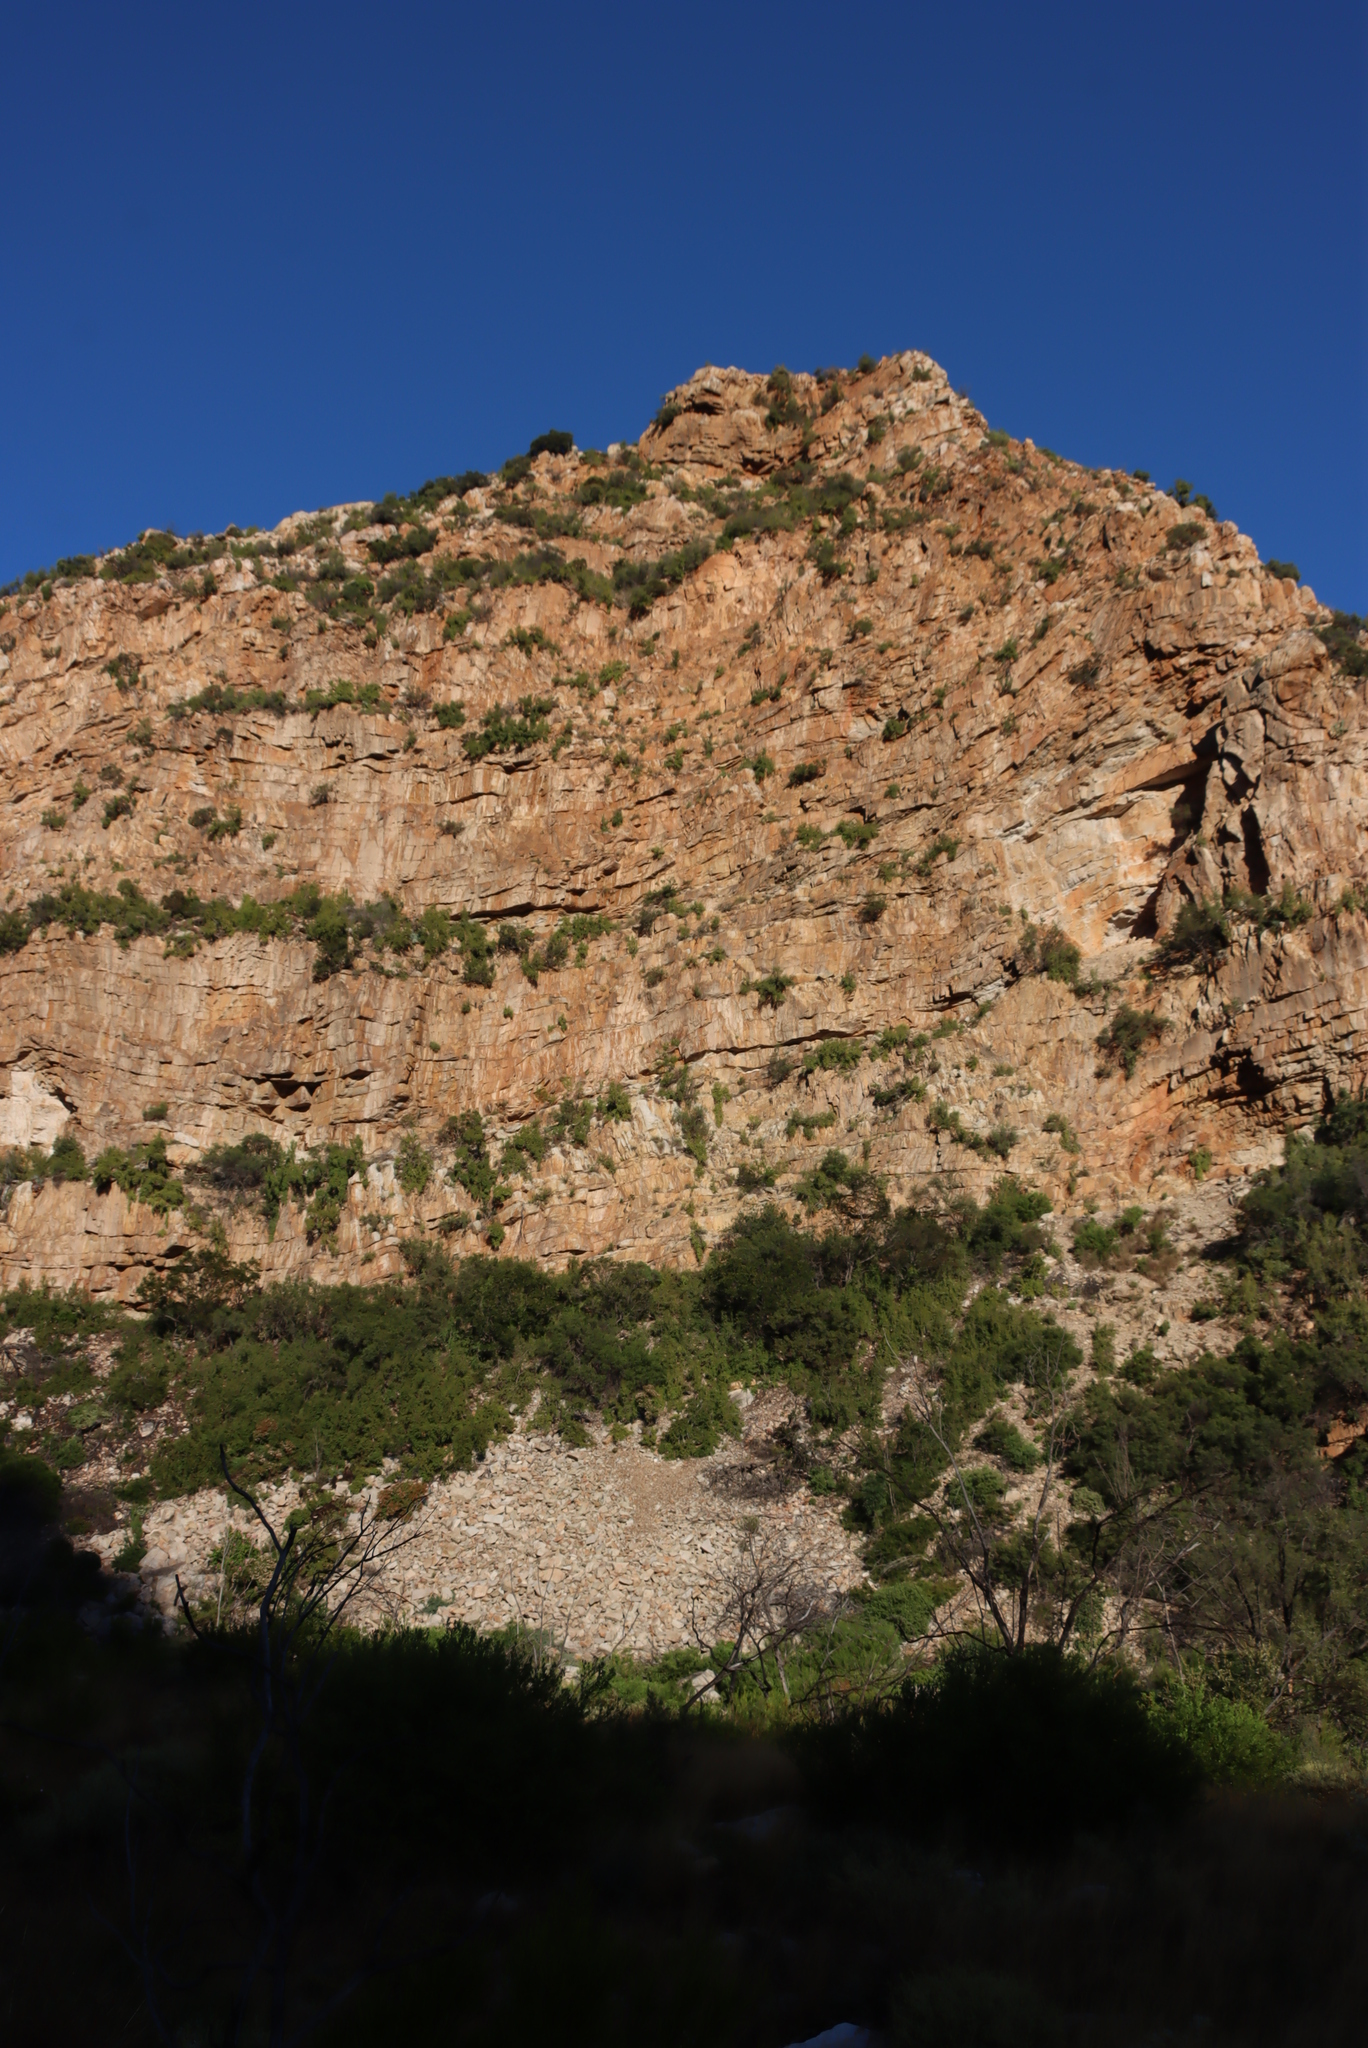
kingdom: Plantae
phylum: Tracheophyta
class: Magnoliopsida
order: Caryophyllales
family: Didiereaceae
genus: Portulacaria
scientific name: Portulacaria afra
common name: Elephant-bush
